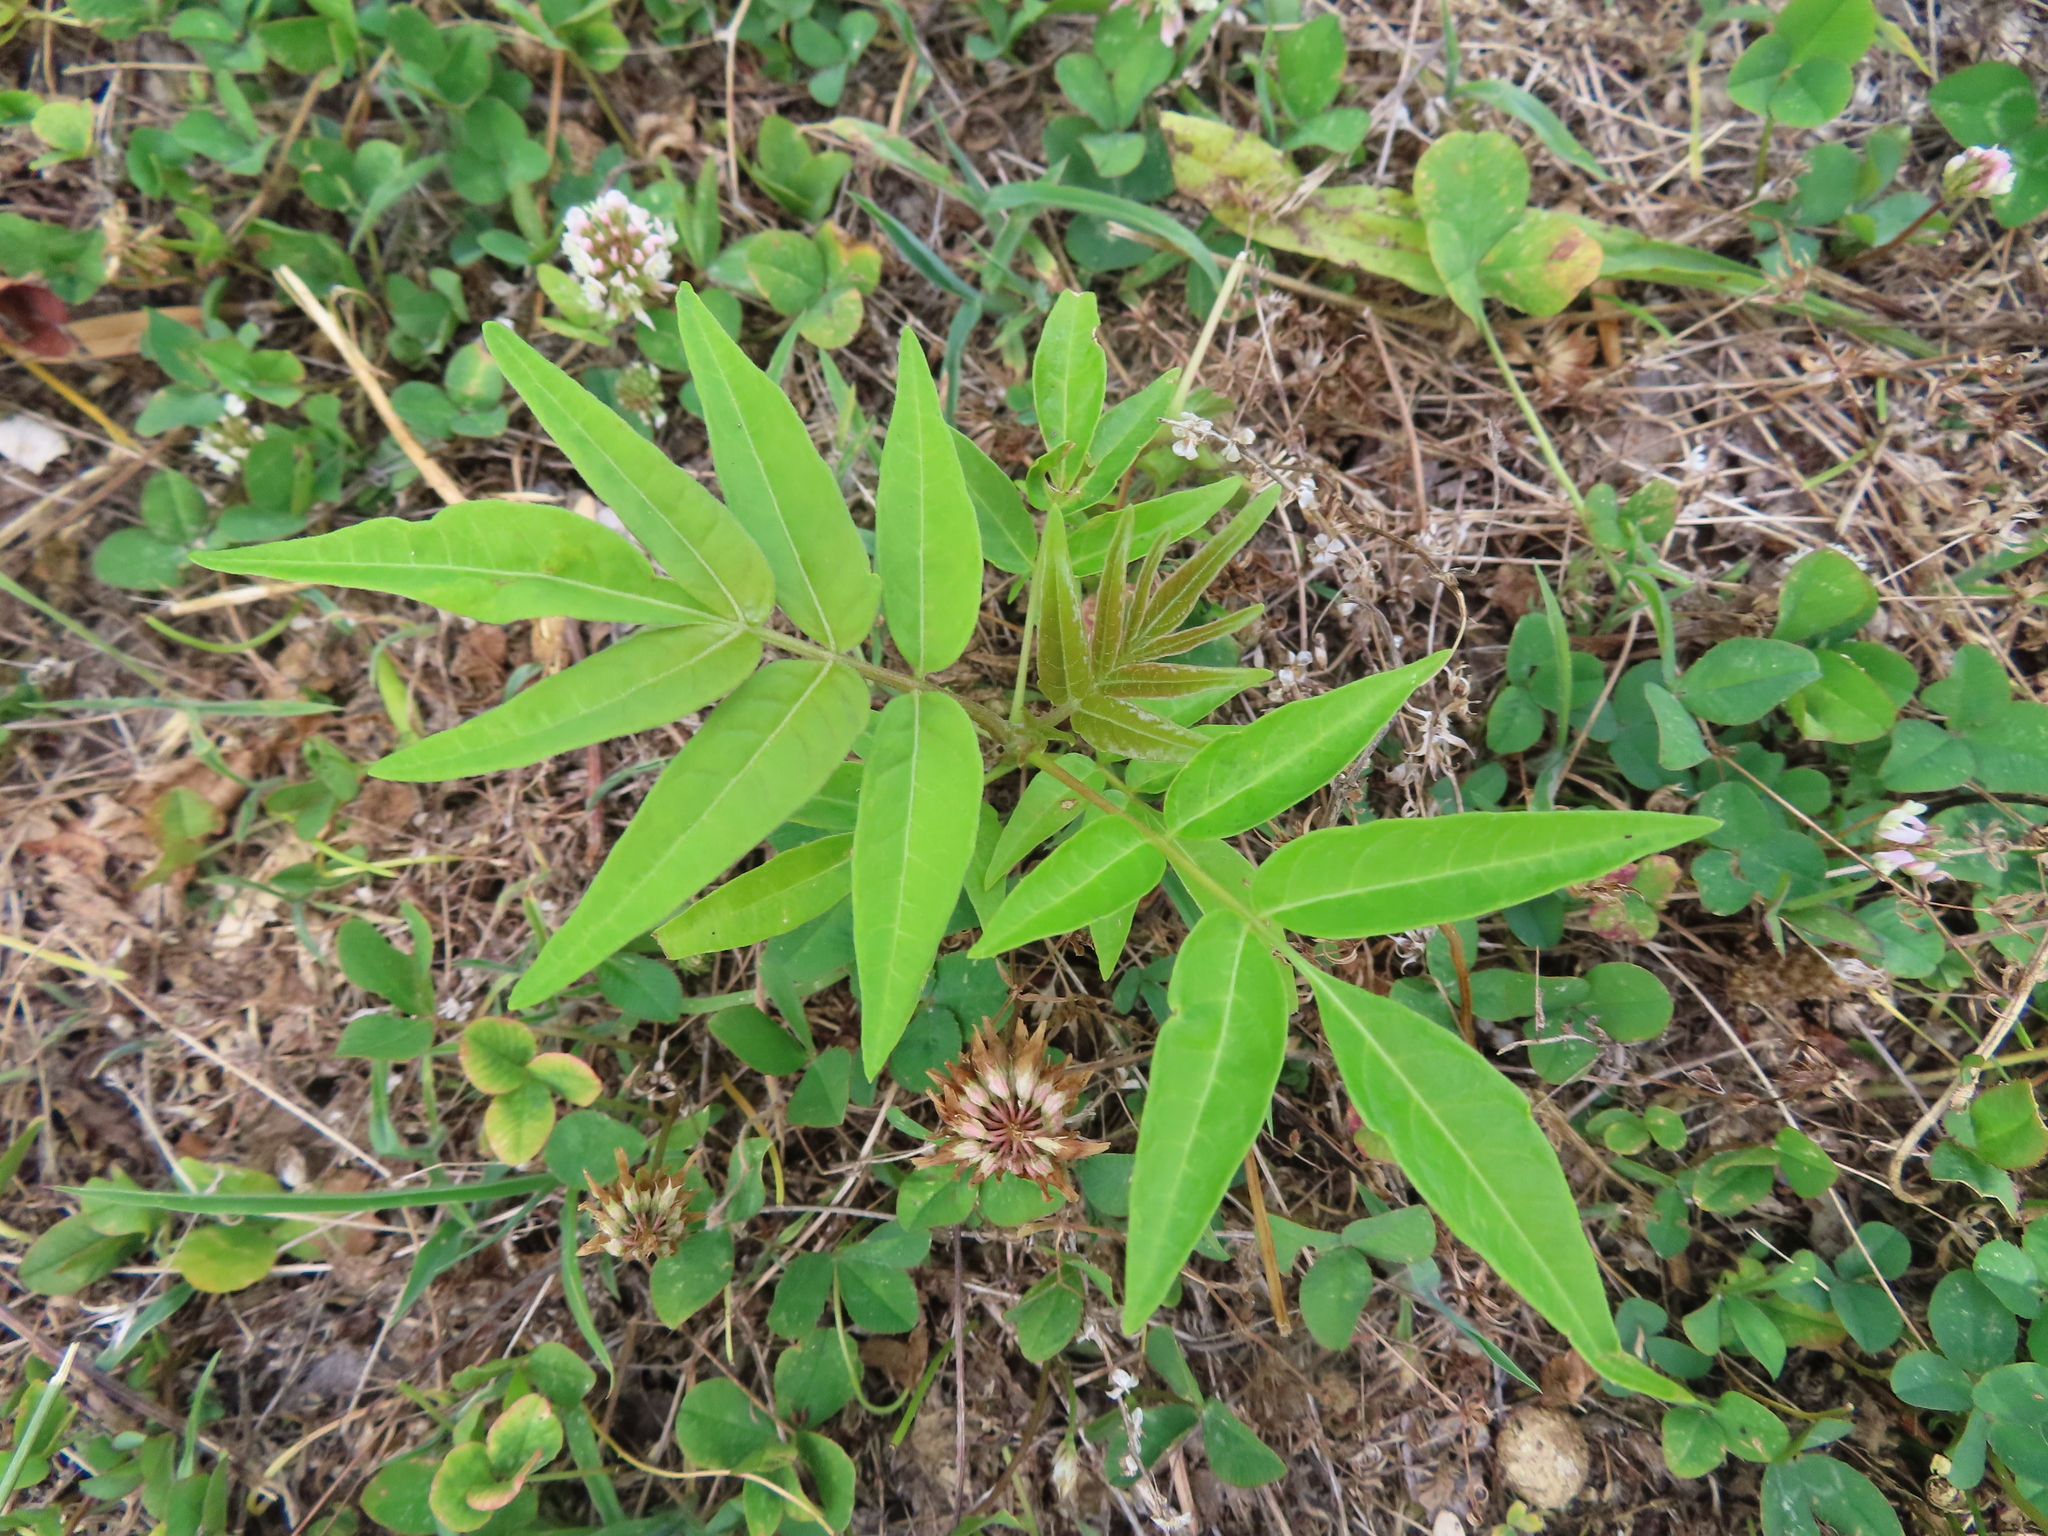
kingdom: Plantae
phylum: Tracheophyta
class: Magnoliopsida
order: Sapindales
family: Simaroubaceae
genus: Ailanthus
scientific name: Ailanthus altissima
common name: Tree-of-heaven
